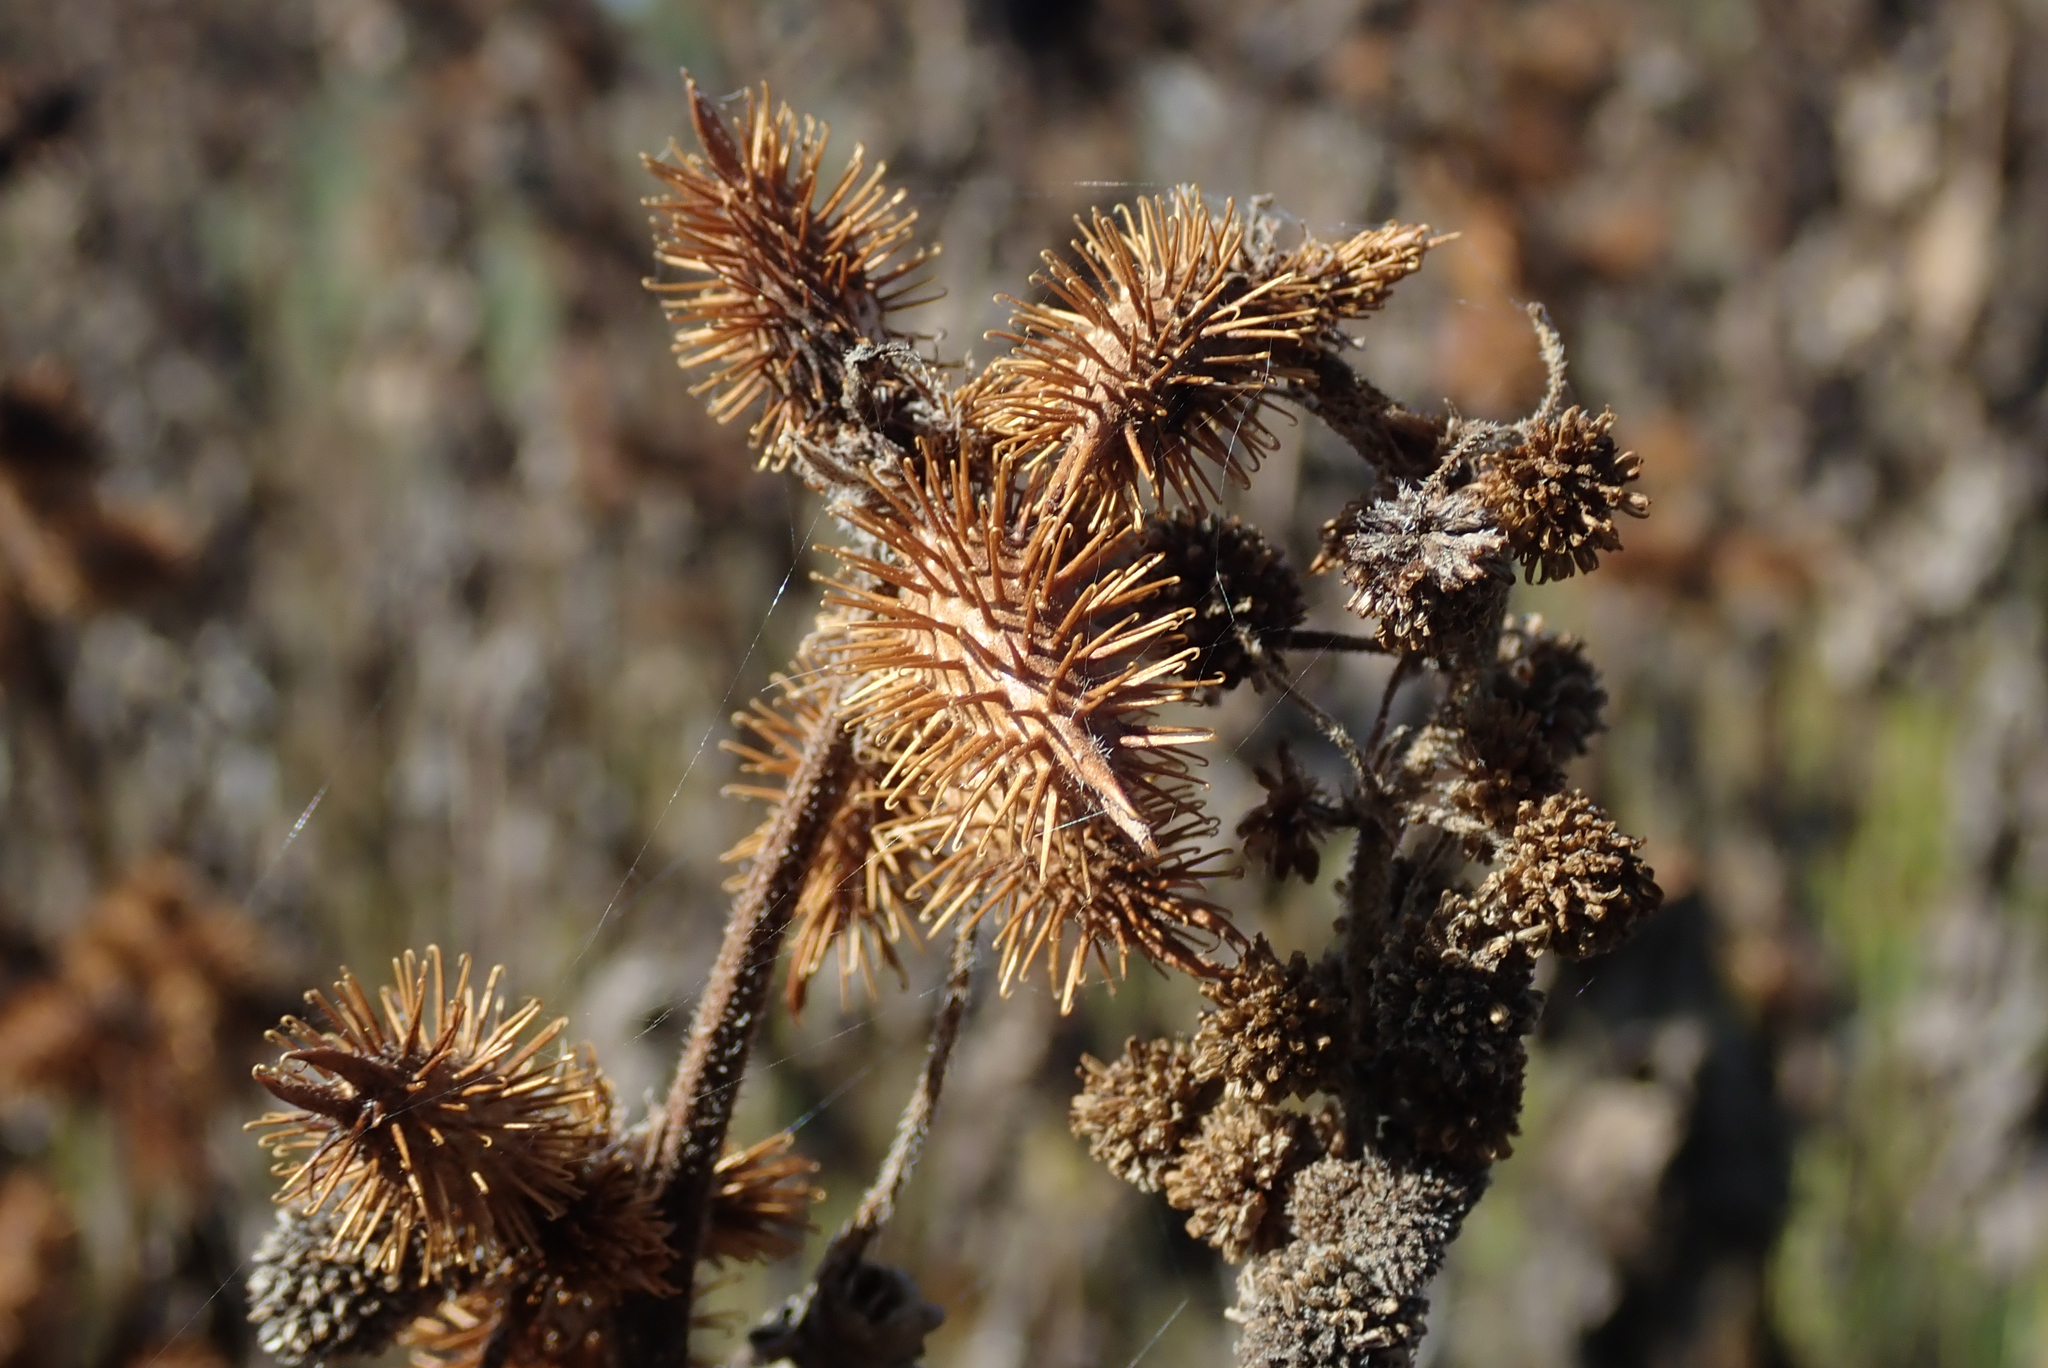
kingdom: Plantae
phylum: Tracheophyta
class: Magnoliopsida
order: Asterales
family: Asteraceae
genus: Xanthium
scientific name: Xanthium strumarium
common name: Rough cocklebur
